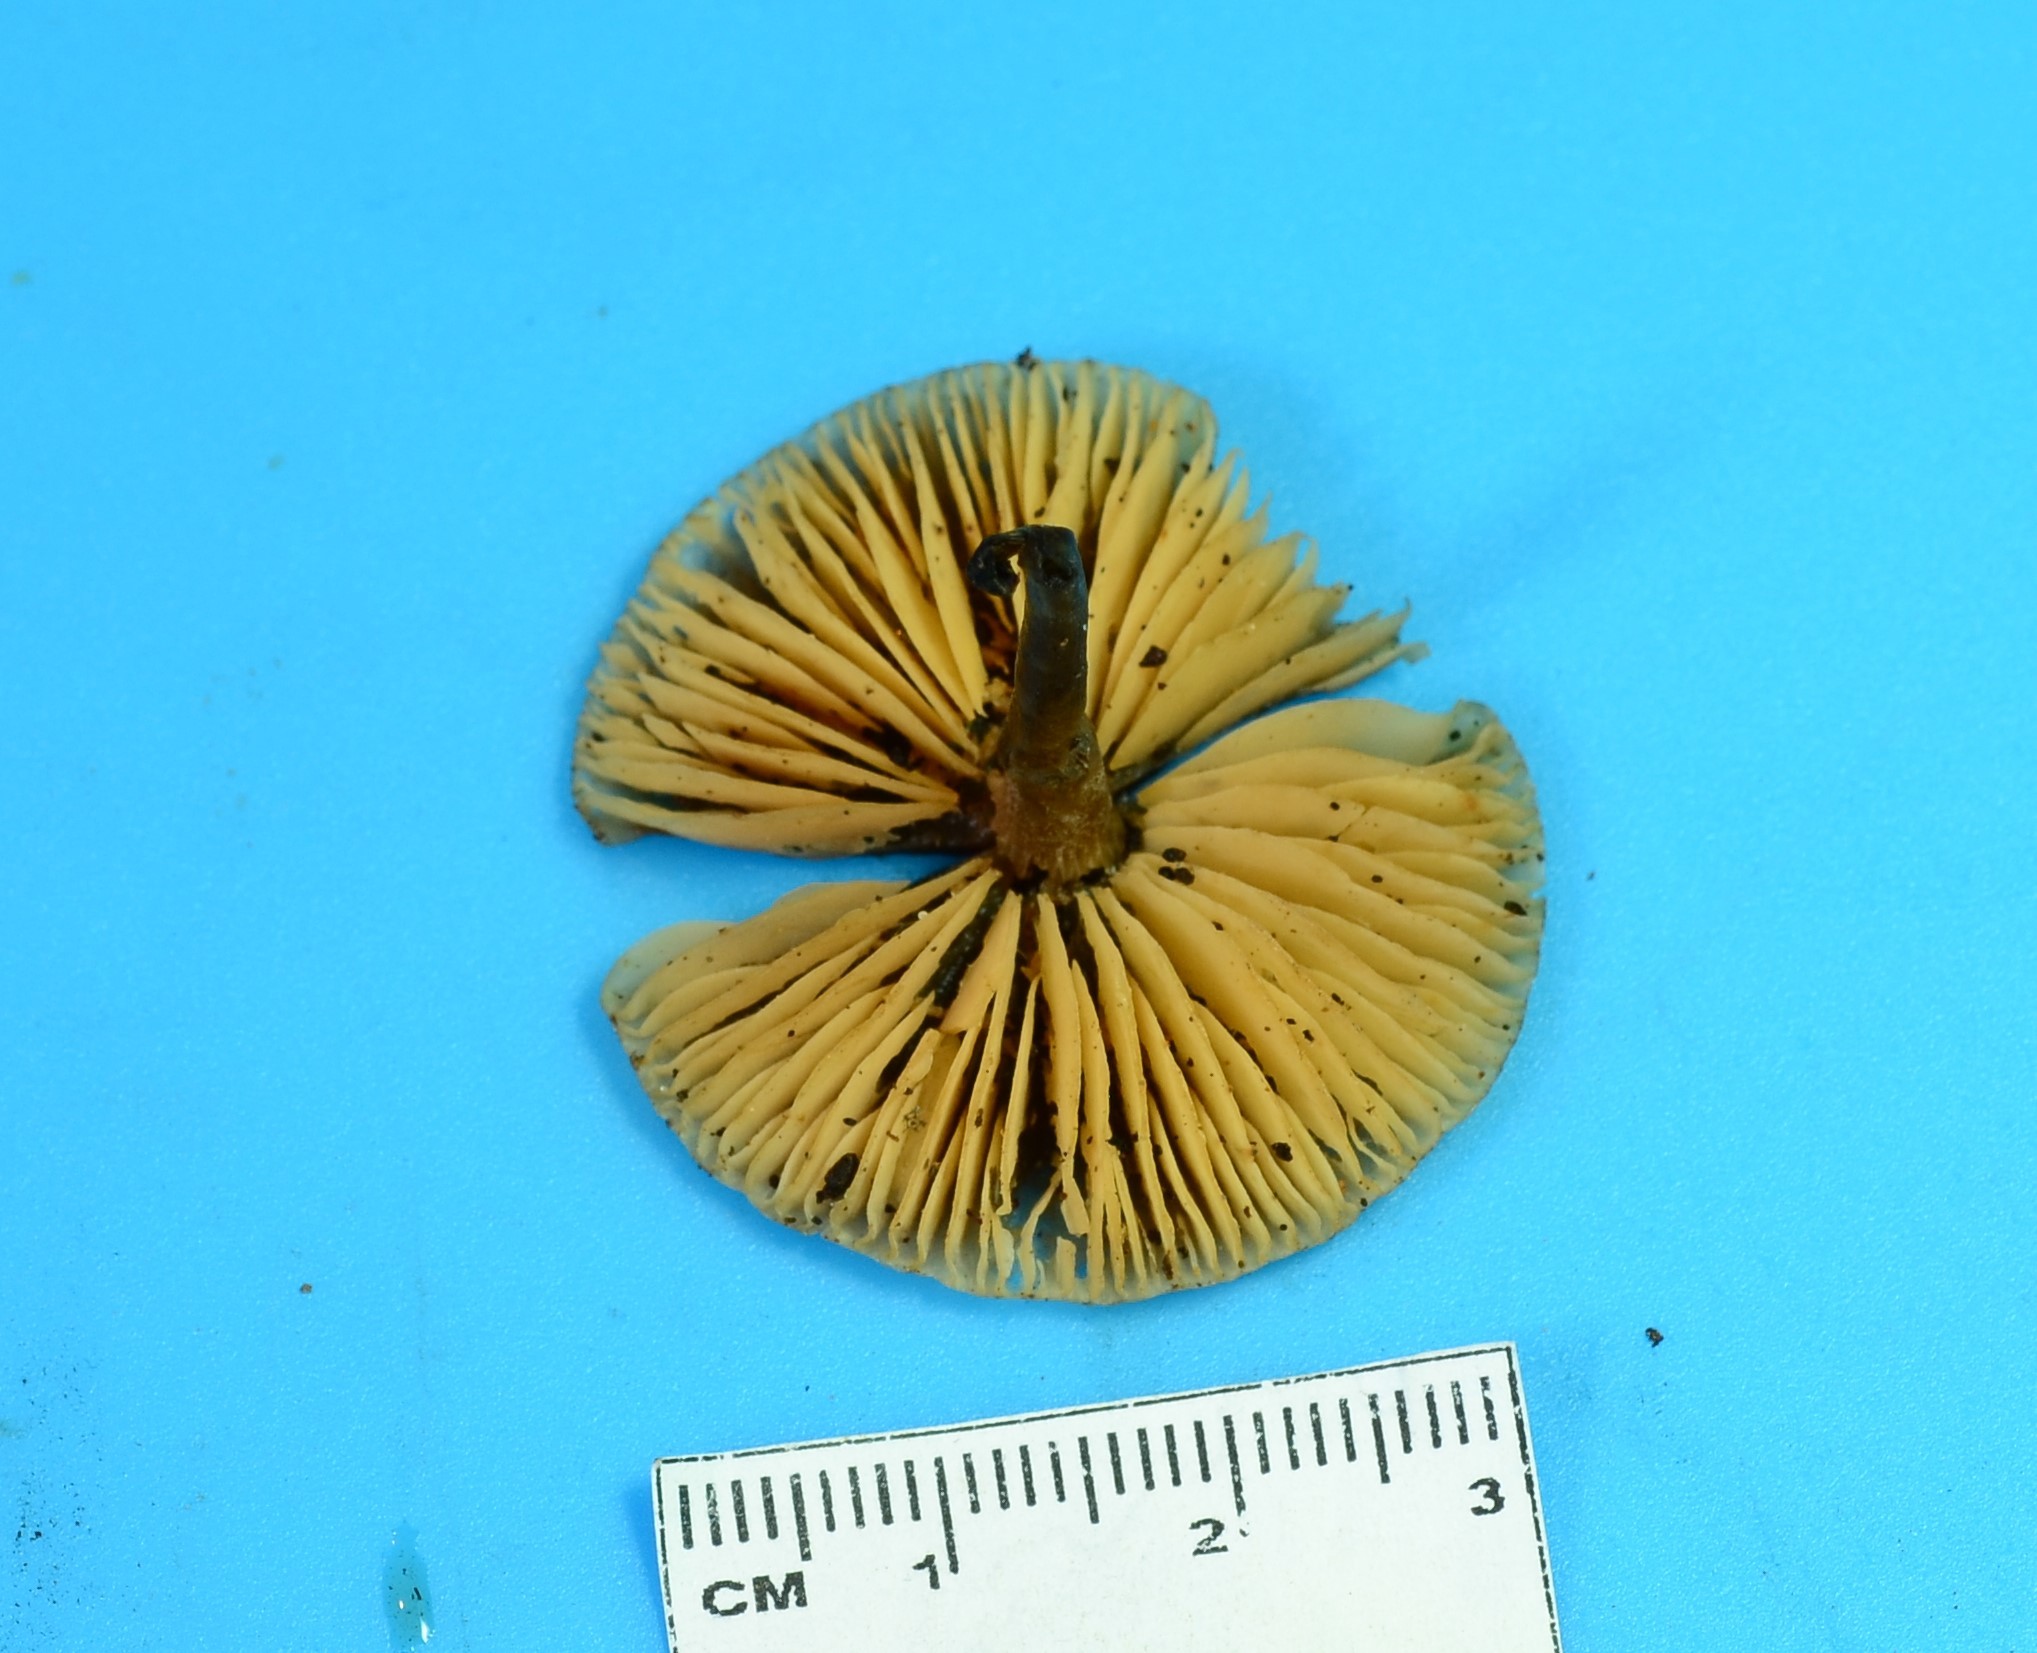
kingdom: Fungi
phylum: Basidiomycota
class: Agaricomycetes
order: Agaricales
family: Macrocystidiaceae
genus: Macrocystidia
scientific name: Macrocystidia cucumis
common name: Cucumber cap
